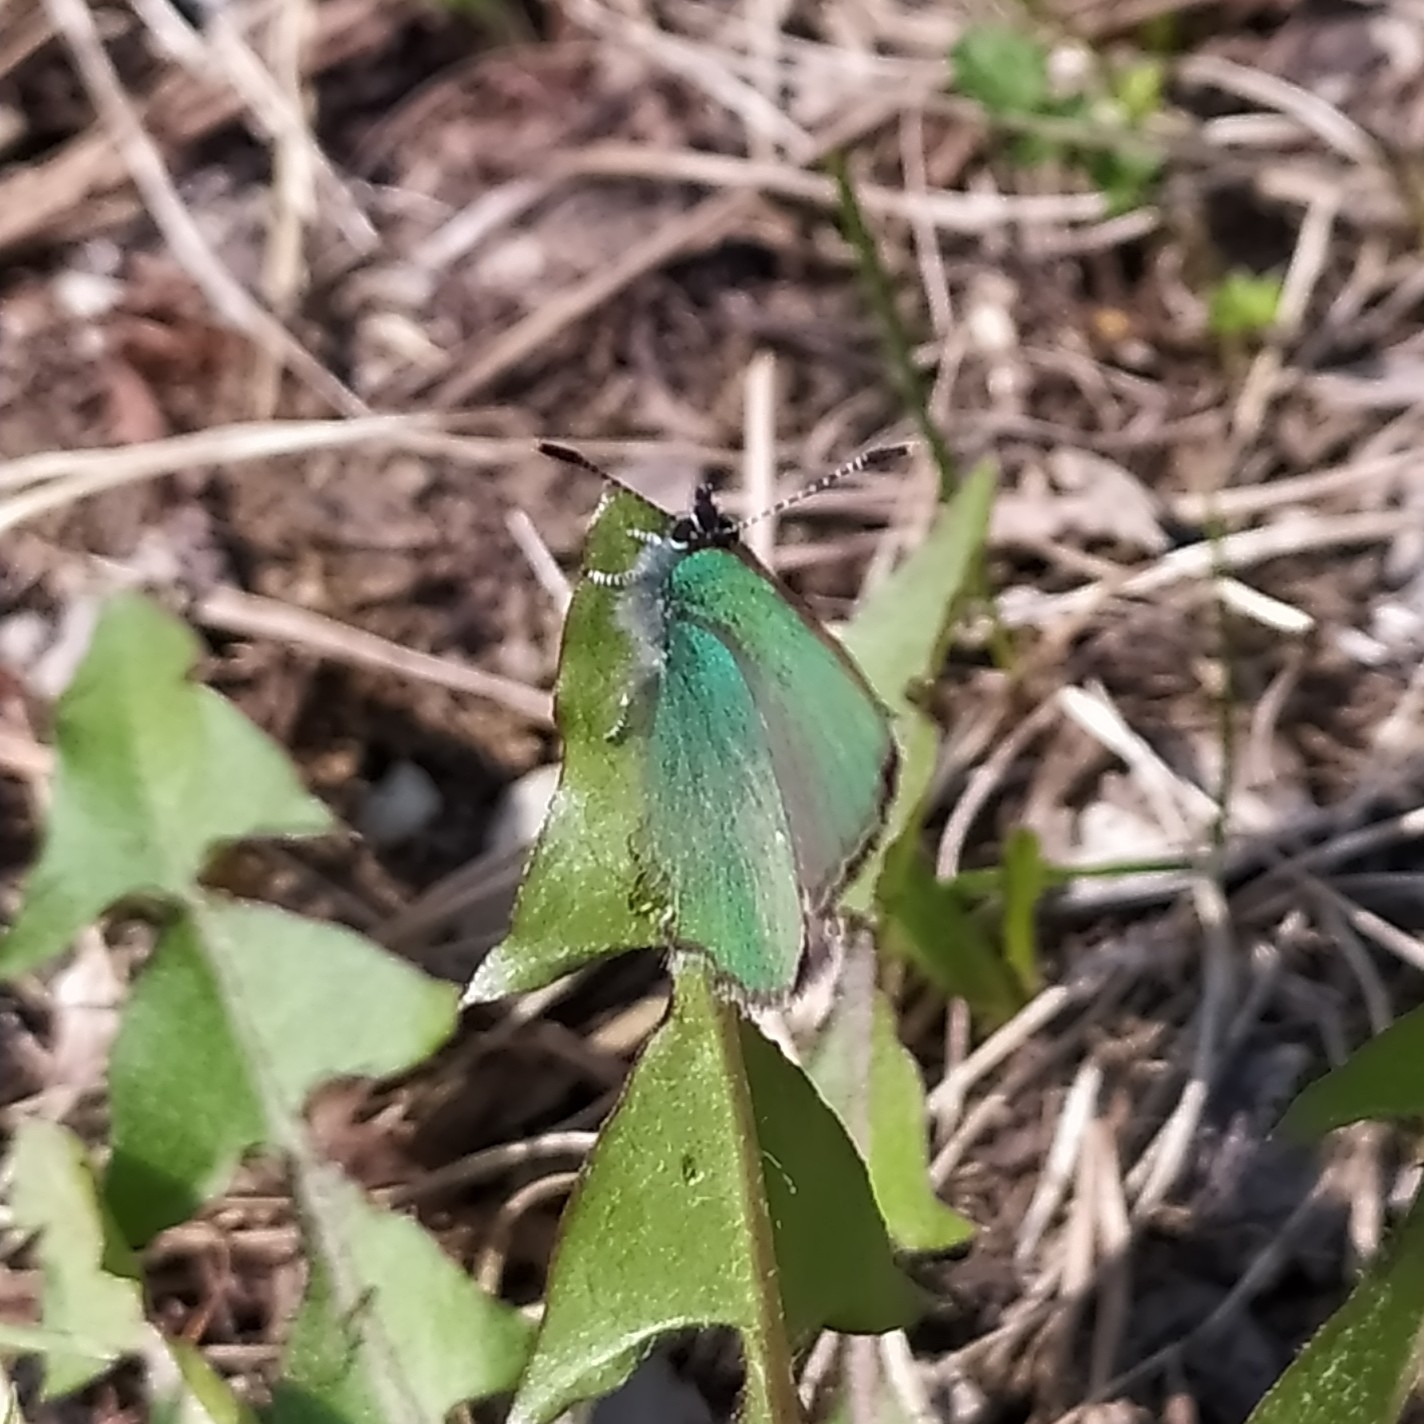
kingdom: Animalia
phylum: Arthropoda
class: Insecta
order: Lepidoptera
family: Lycaenidae
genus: Callophrys
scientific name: Callophrys rubi
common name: Green hairstreak
